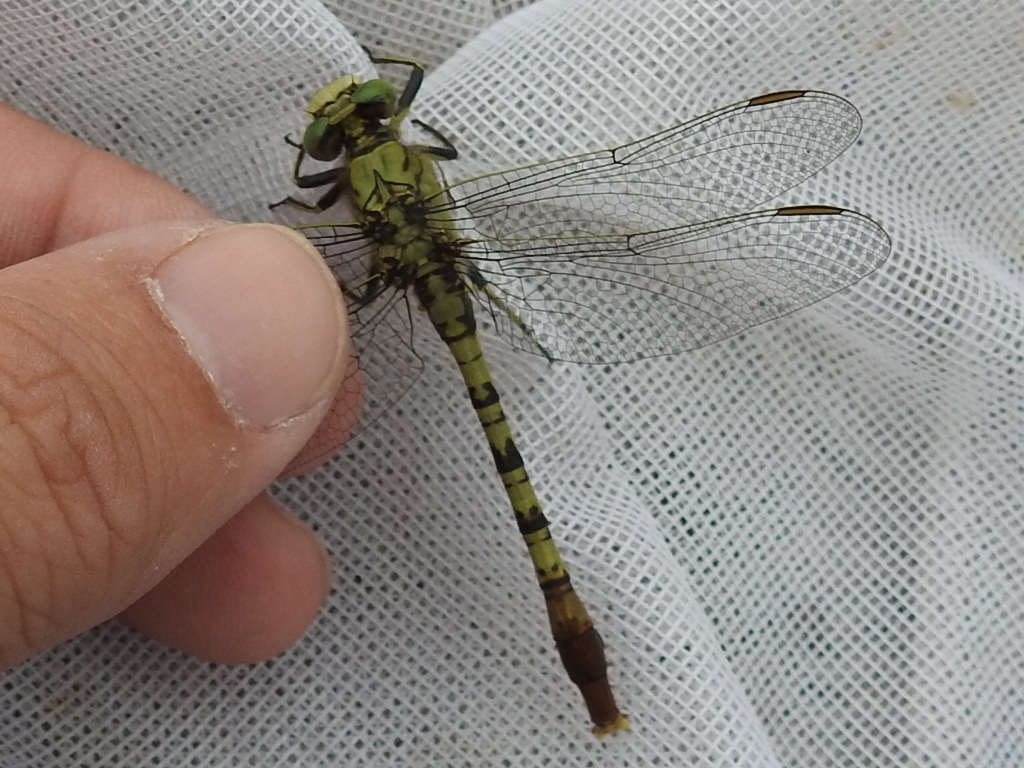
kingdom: Animalia
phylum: Arthropoda
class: Insecta
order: Odonata
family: Gomphidae
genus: Arigomphus
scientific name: Arigomphus submedianus
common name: Jade clubtail
